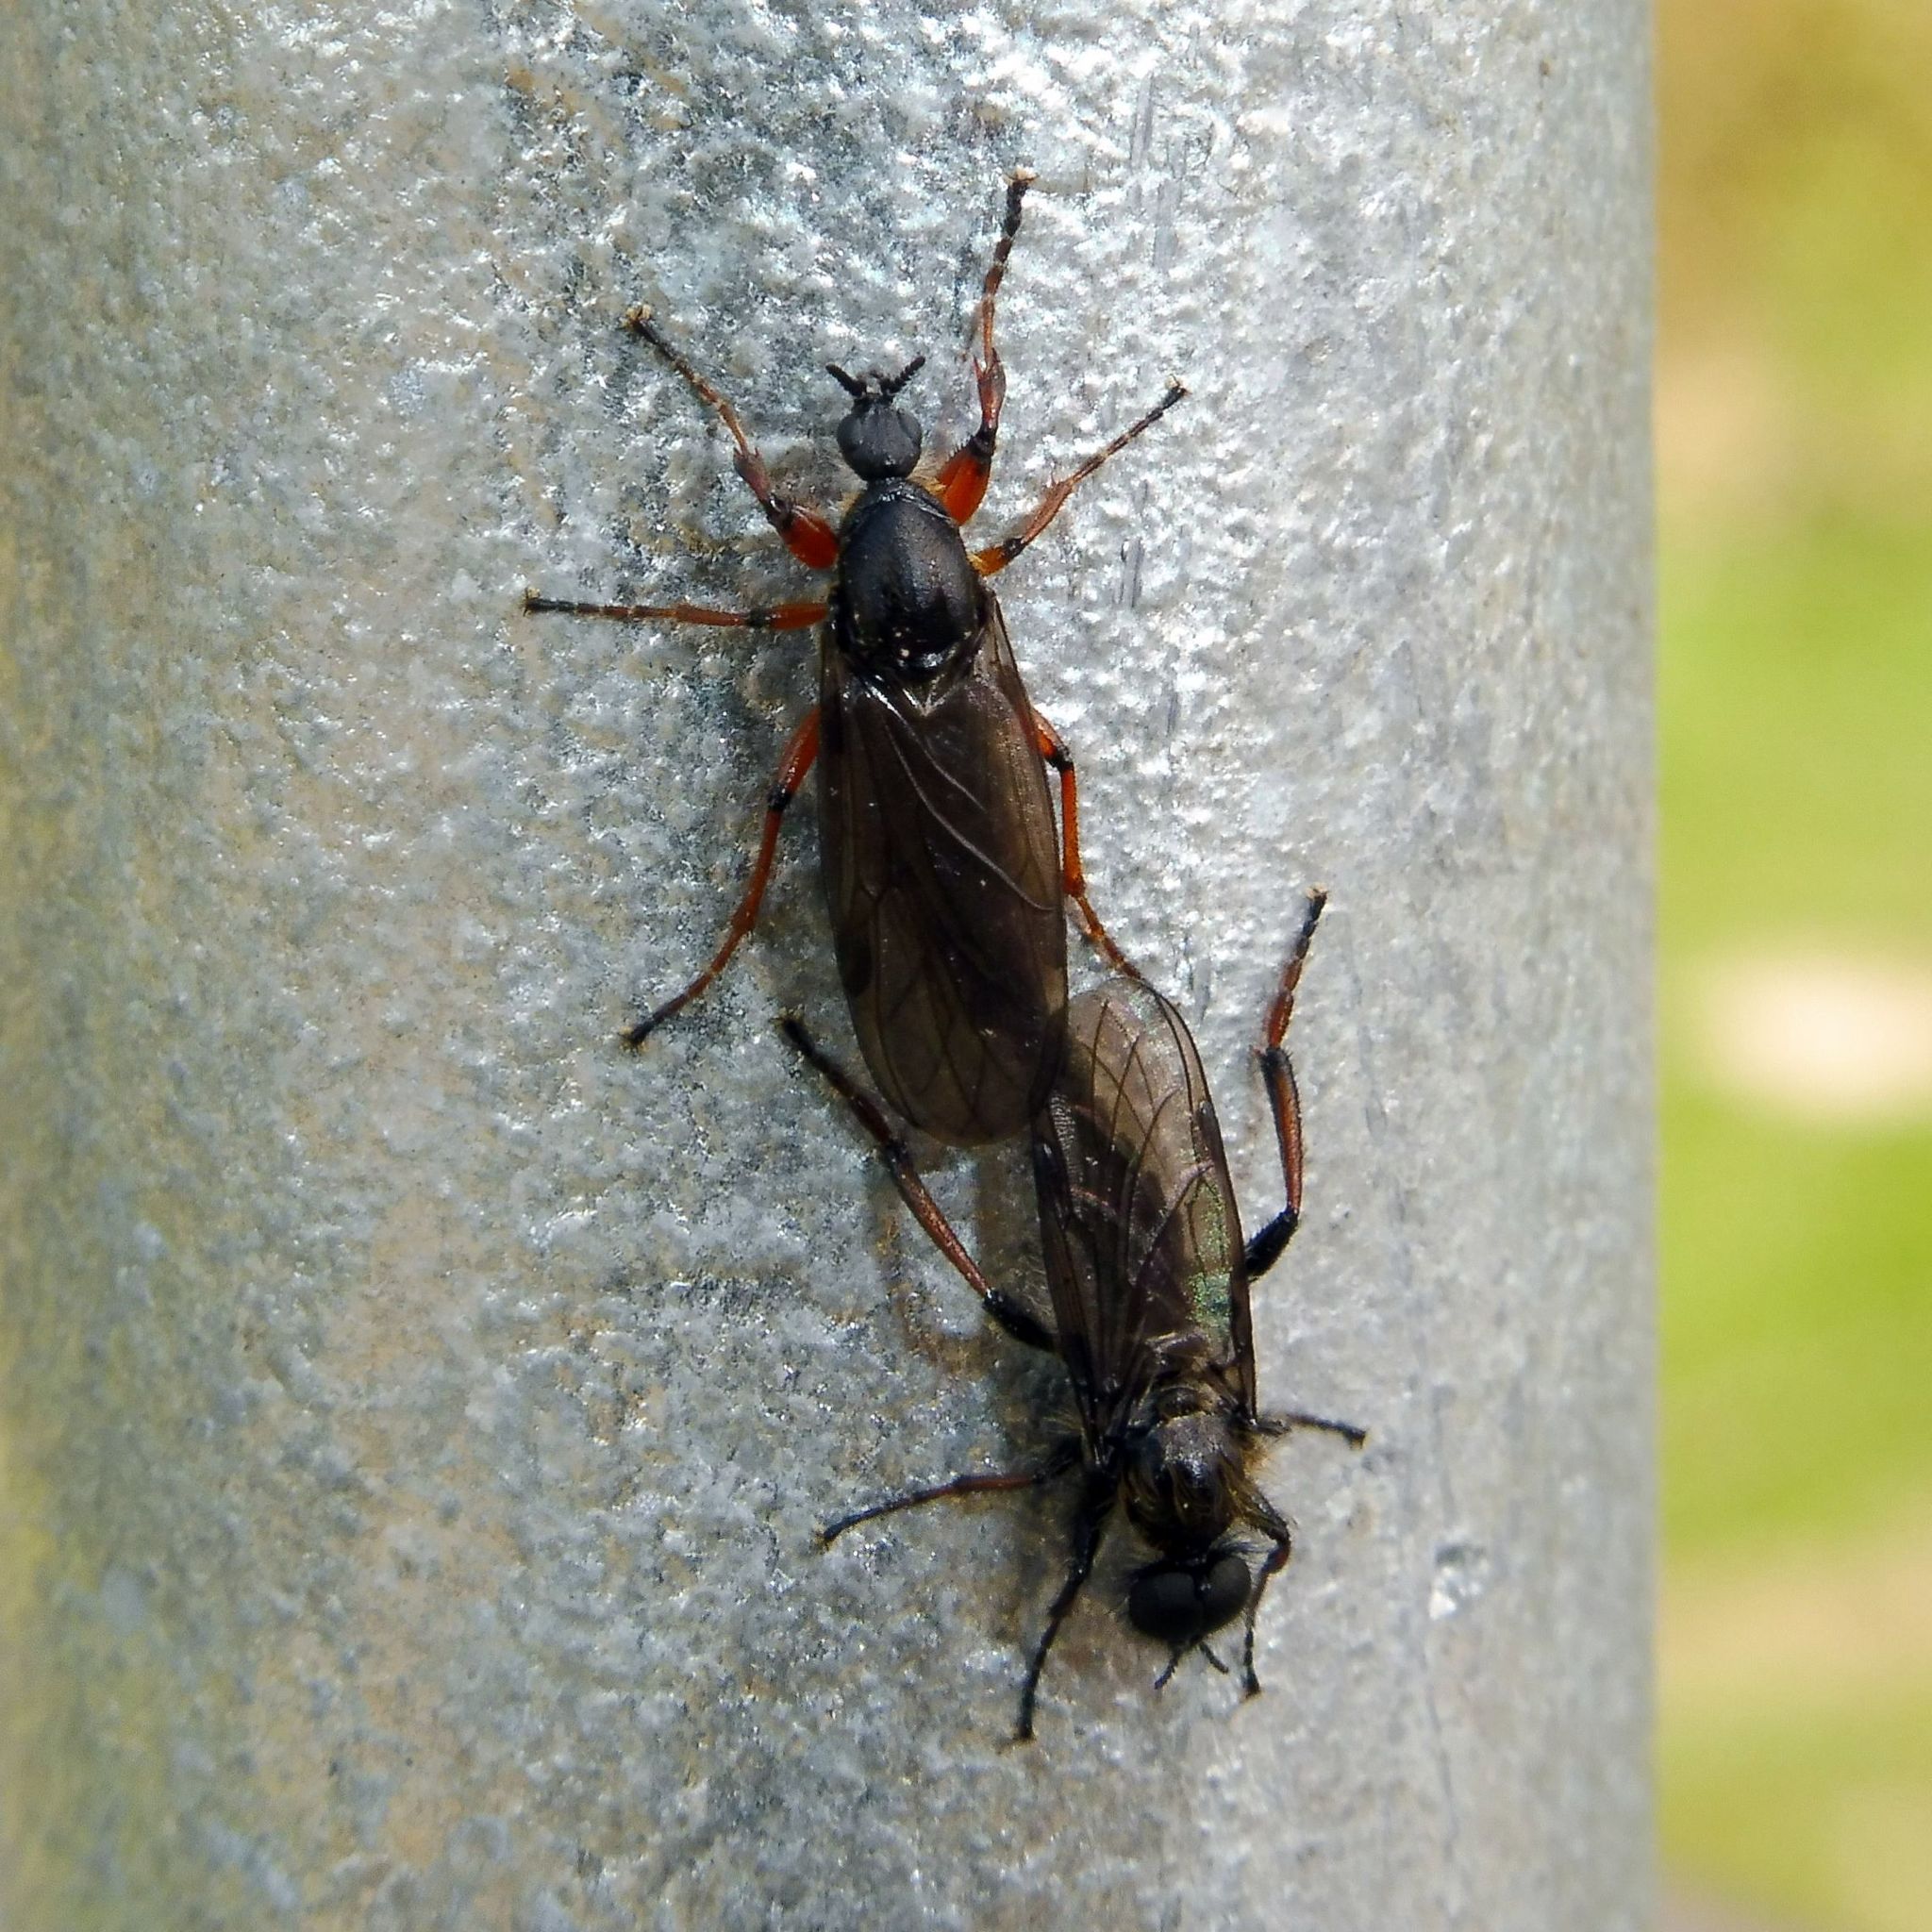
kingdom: Animalia
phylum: Arthropoda
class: Insecta
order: Diptera
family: Bibionidae
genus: Bibio
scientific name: Bibio lanigerus
